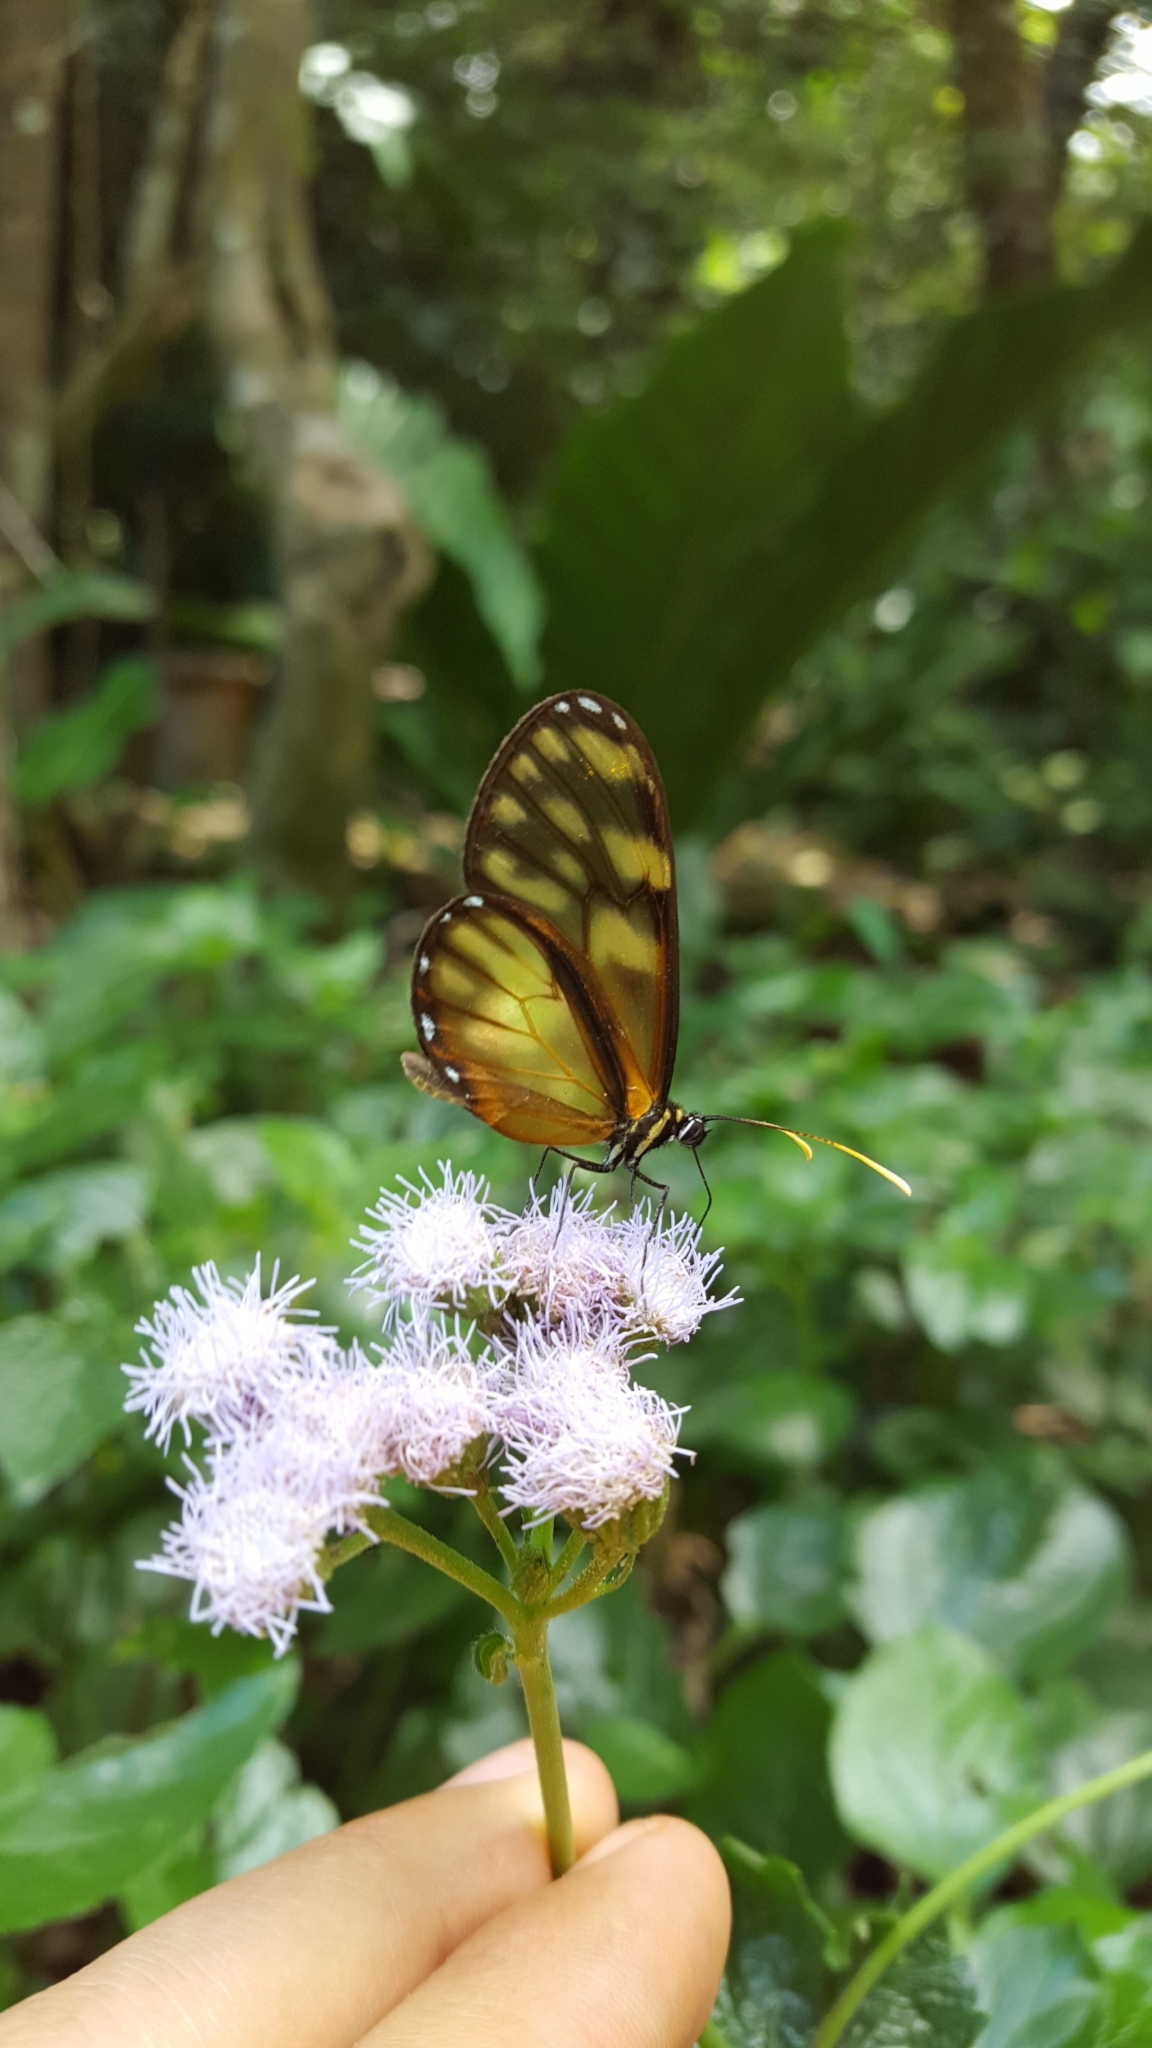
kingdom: Animalia
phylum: Arthropoda
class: Insecta
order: Lepidoptera
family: Nymphalidae
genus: Dircenna
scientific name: Dircenna klugii
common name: Klug’s clearwing
